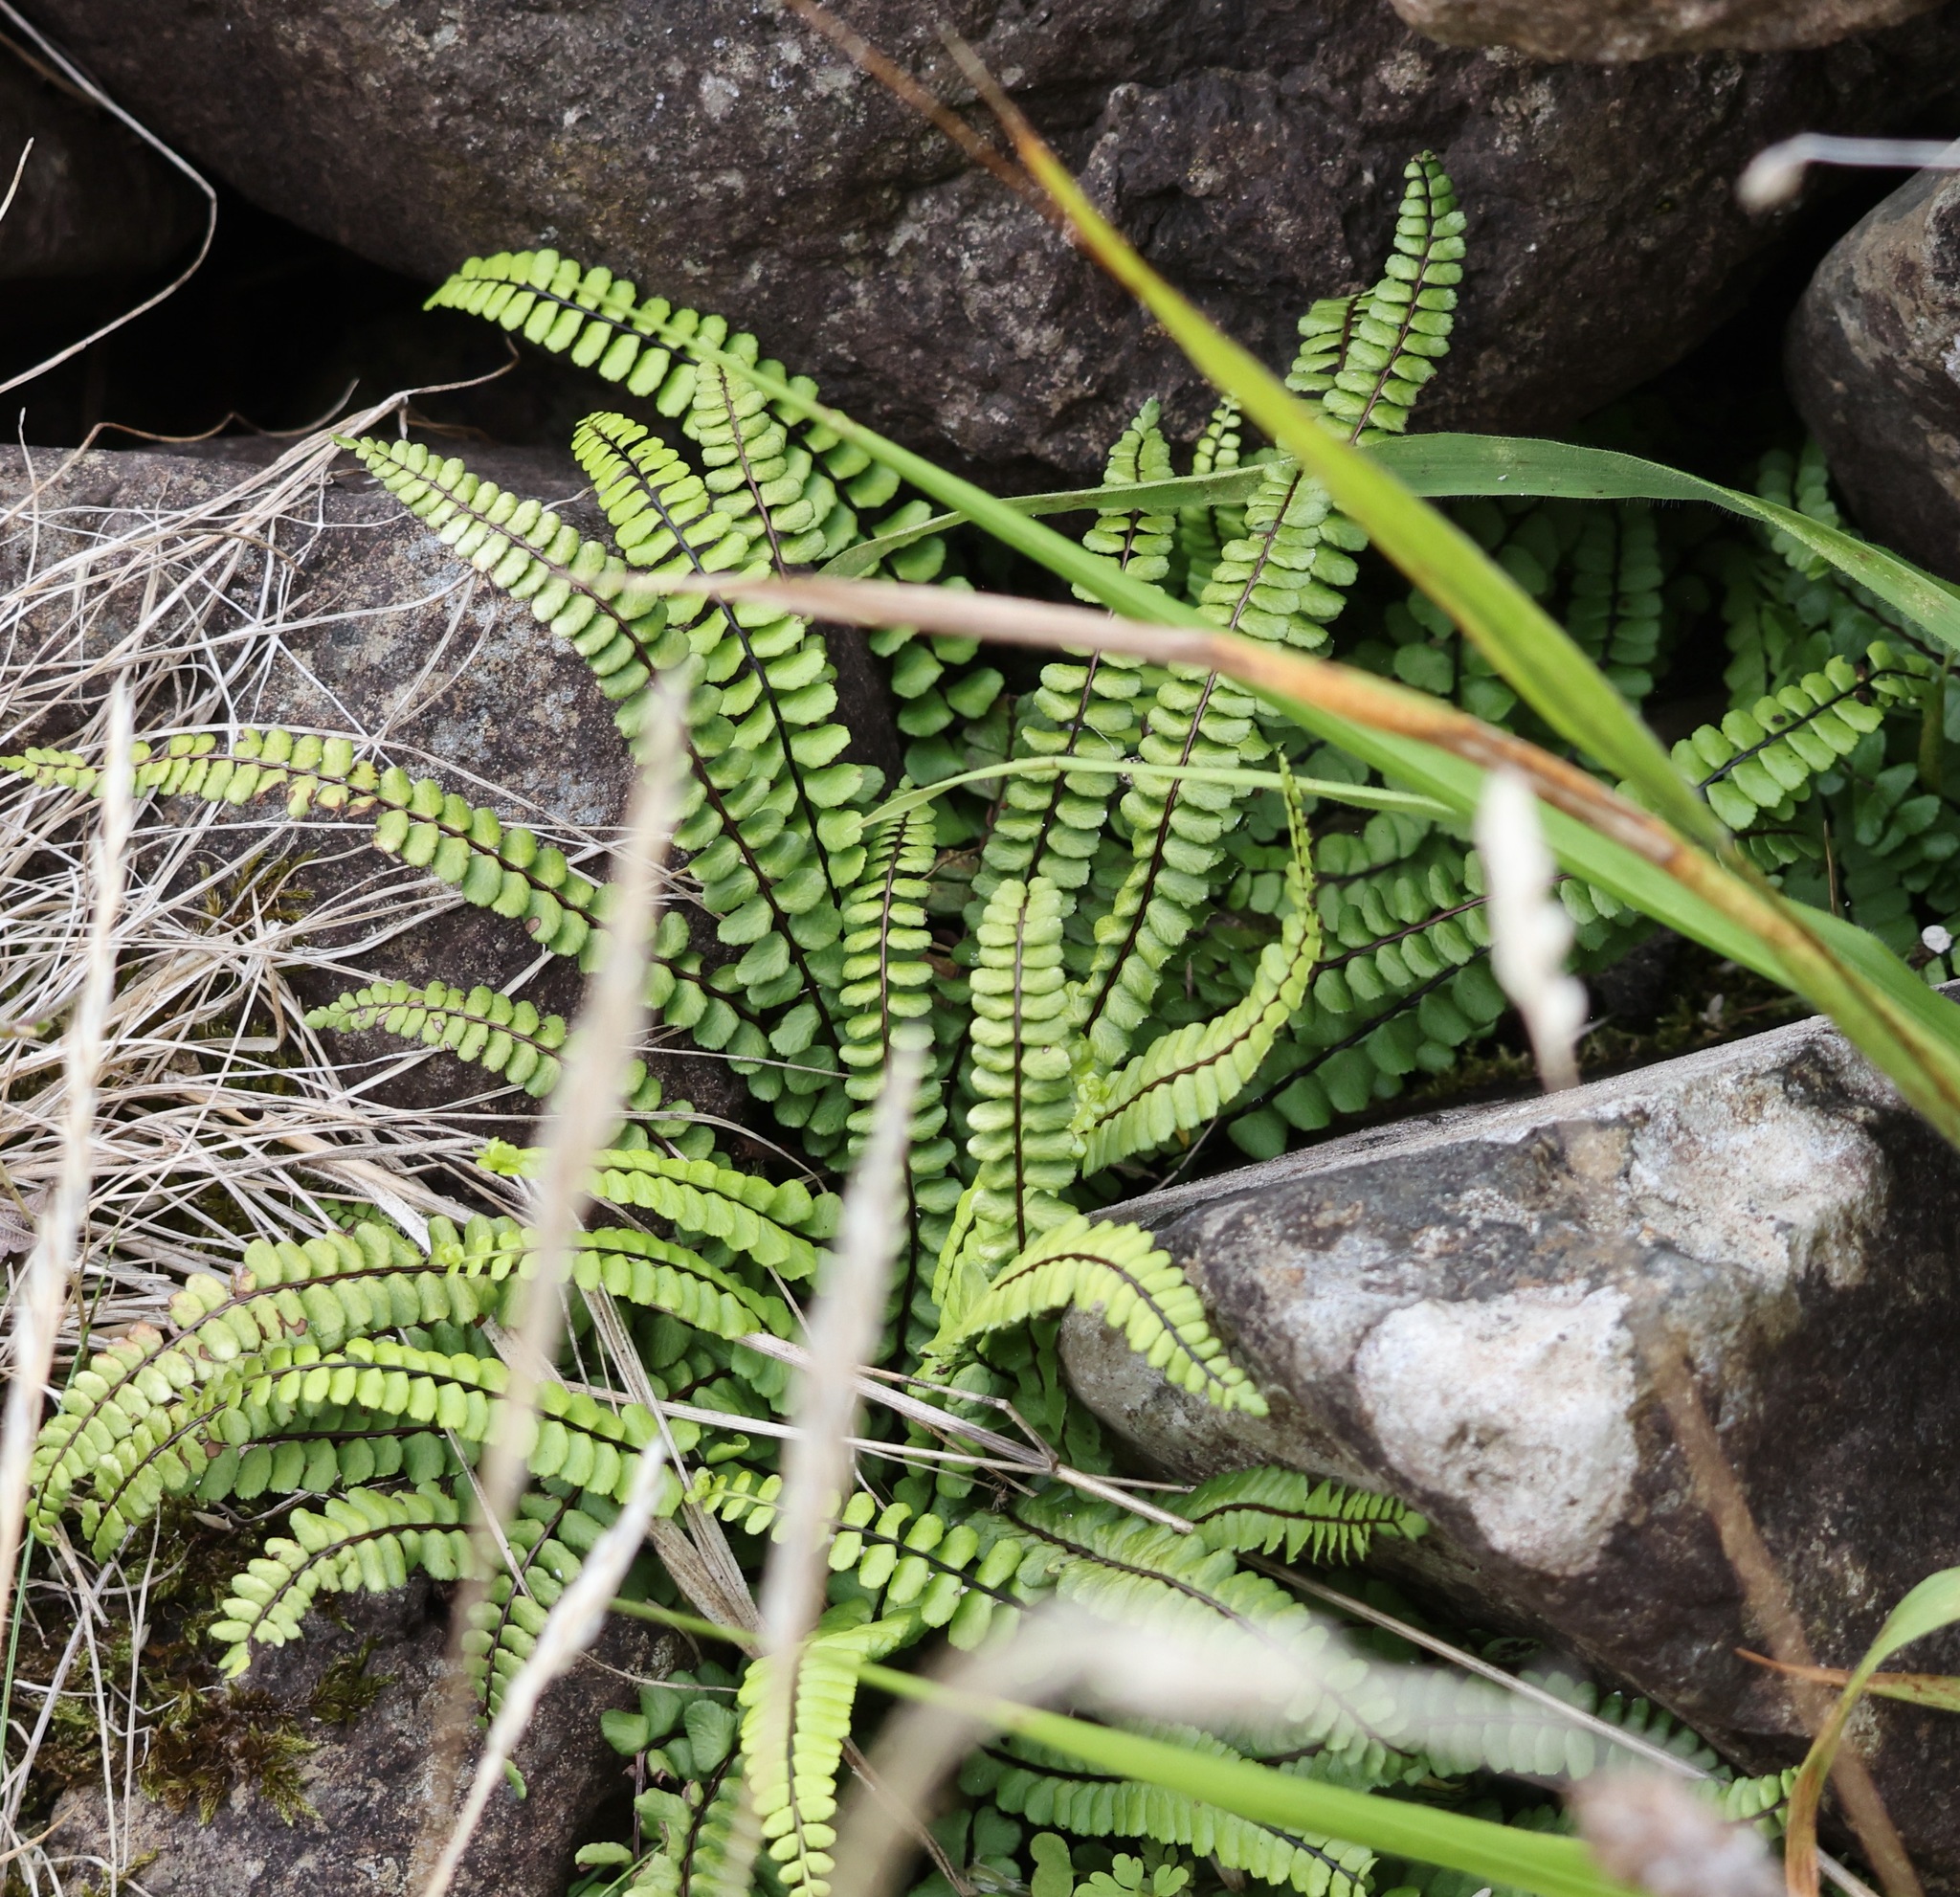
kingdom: Plantae
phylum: Tracheophyta
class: Polypodiopsida
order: Polypodiales
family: Aspleniaceae
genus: Asplenium
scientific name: Asplenium trichomanes
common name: Maidenhair spleenwort
